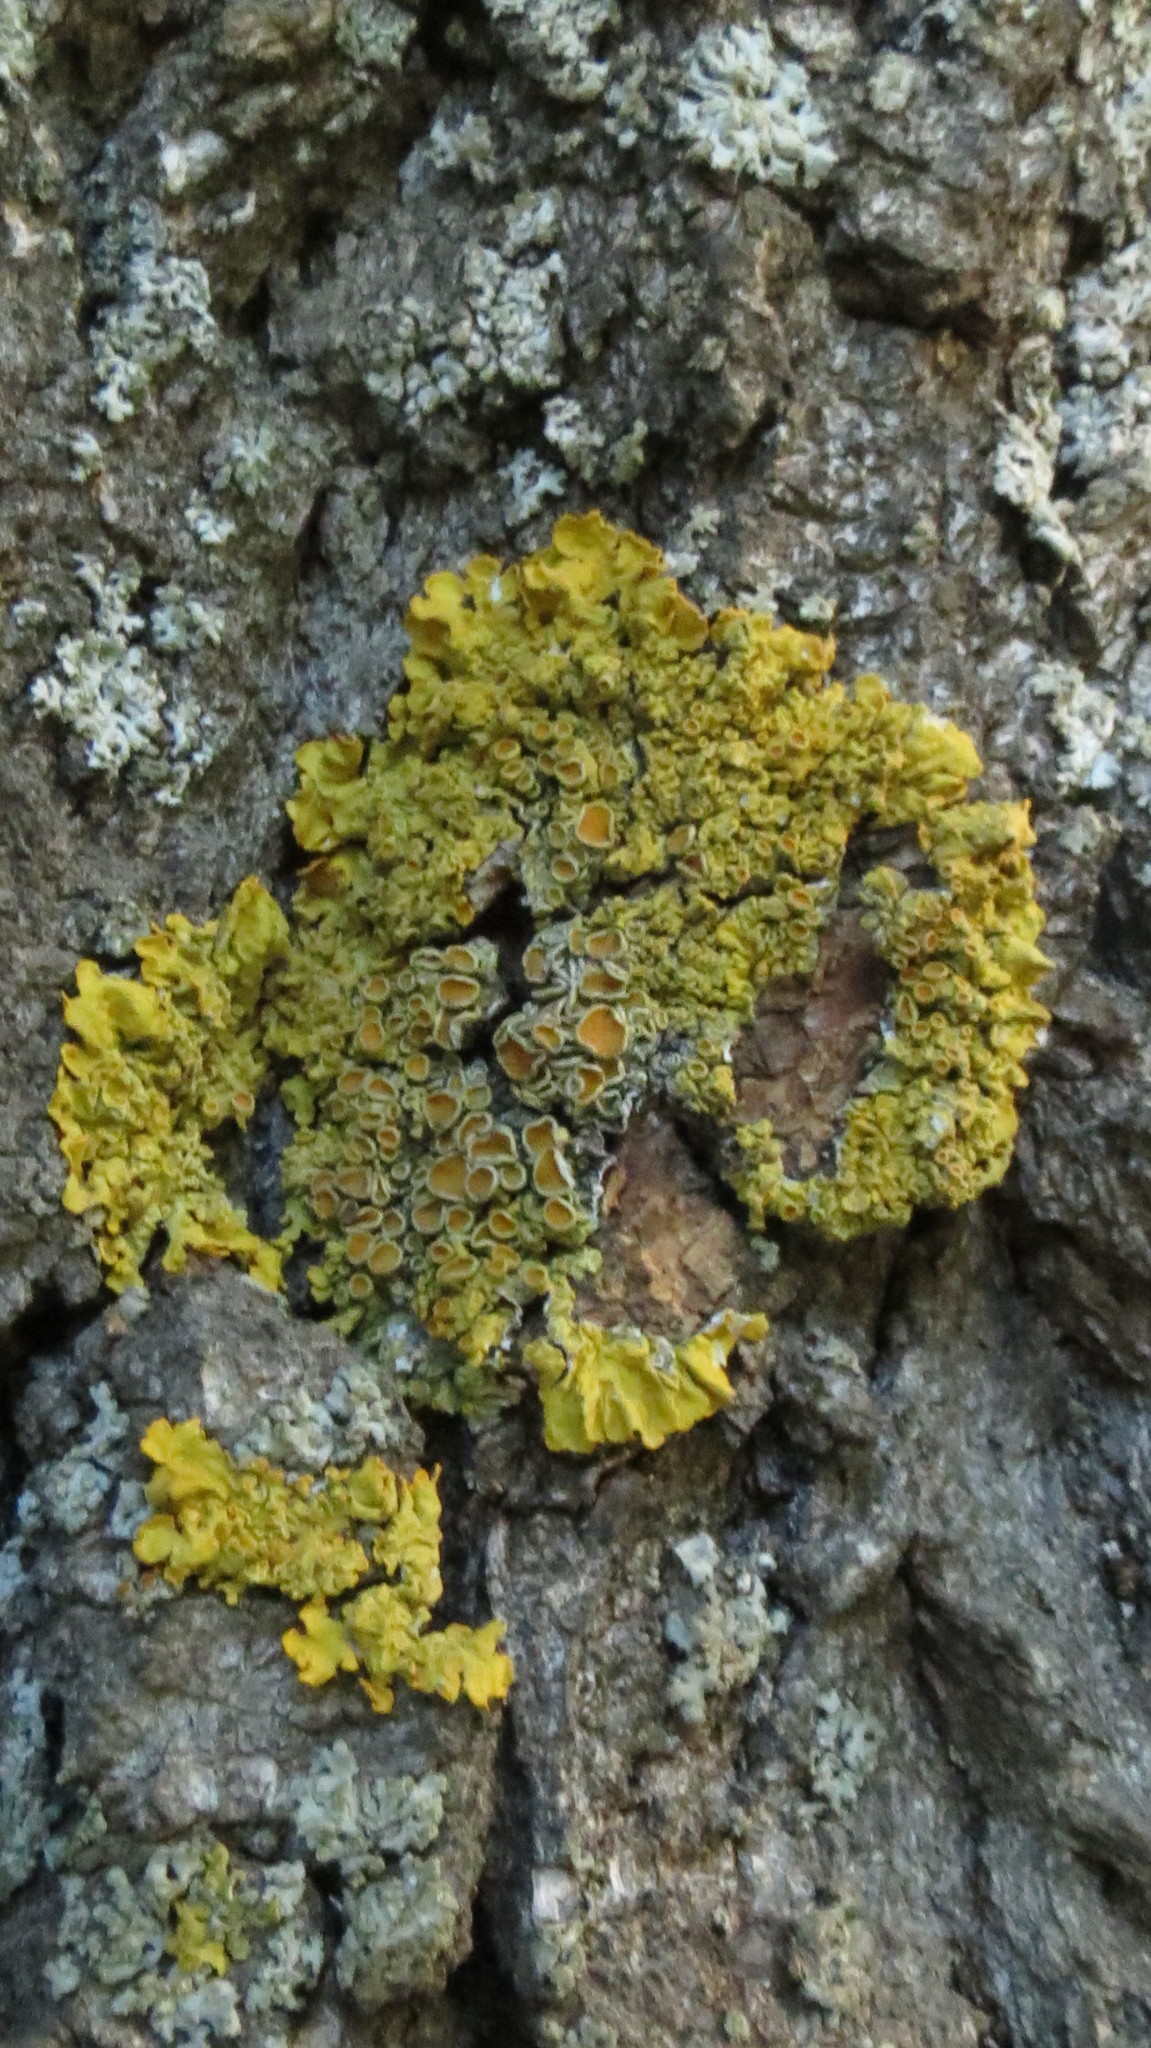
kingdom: Fungi
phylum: Ascomycota
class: Lecanoromycetes
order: Teloschistales
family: Teloschistaceae
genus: Xanthoria
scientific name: Xanthoria parietina
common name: Common orange lichen
